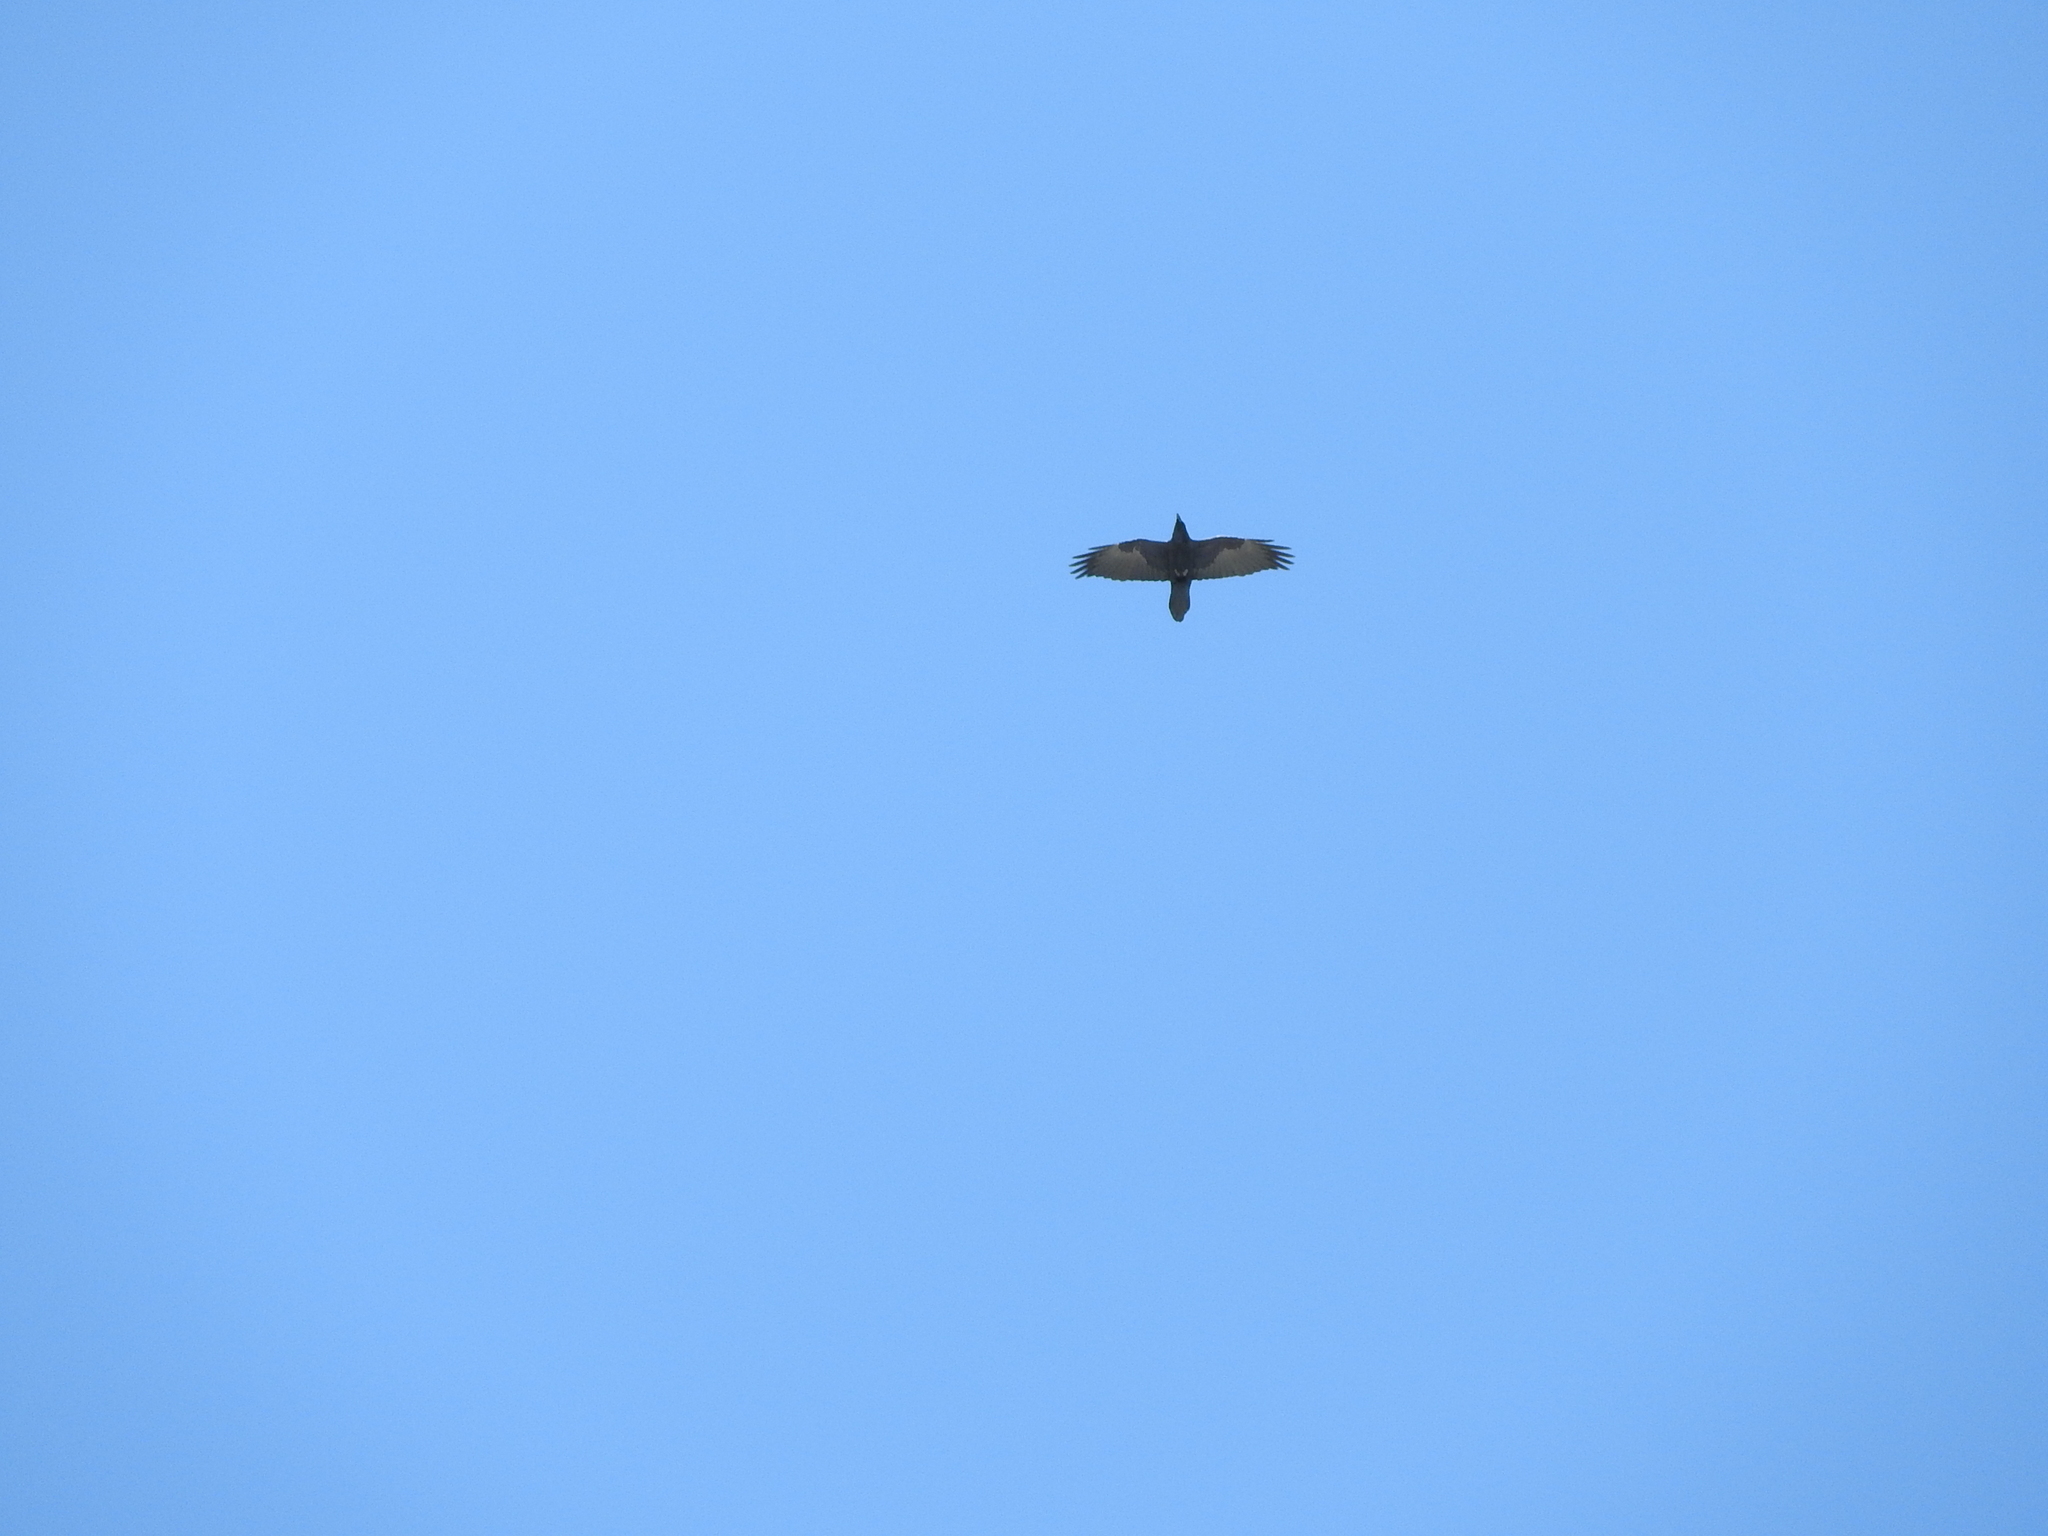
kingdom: Animalia
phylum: Chordata
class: Aves
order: Passeriformes
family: Corvidae
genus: Corvus
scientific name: Corvus corax
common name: Common raven
